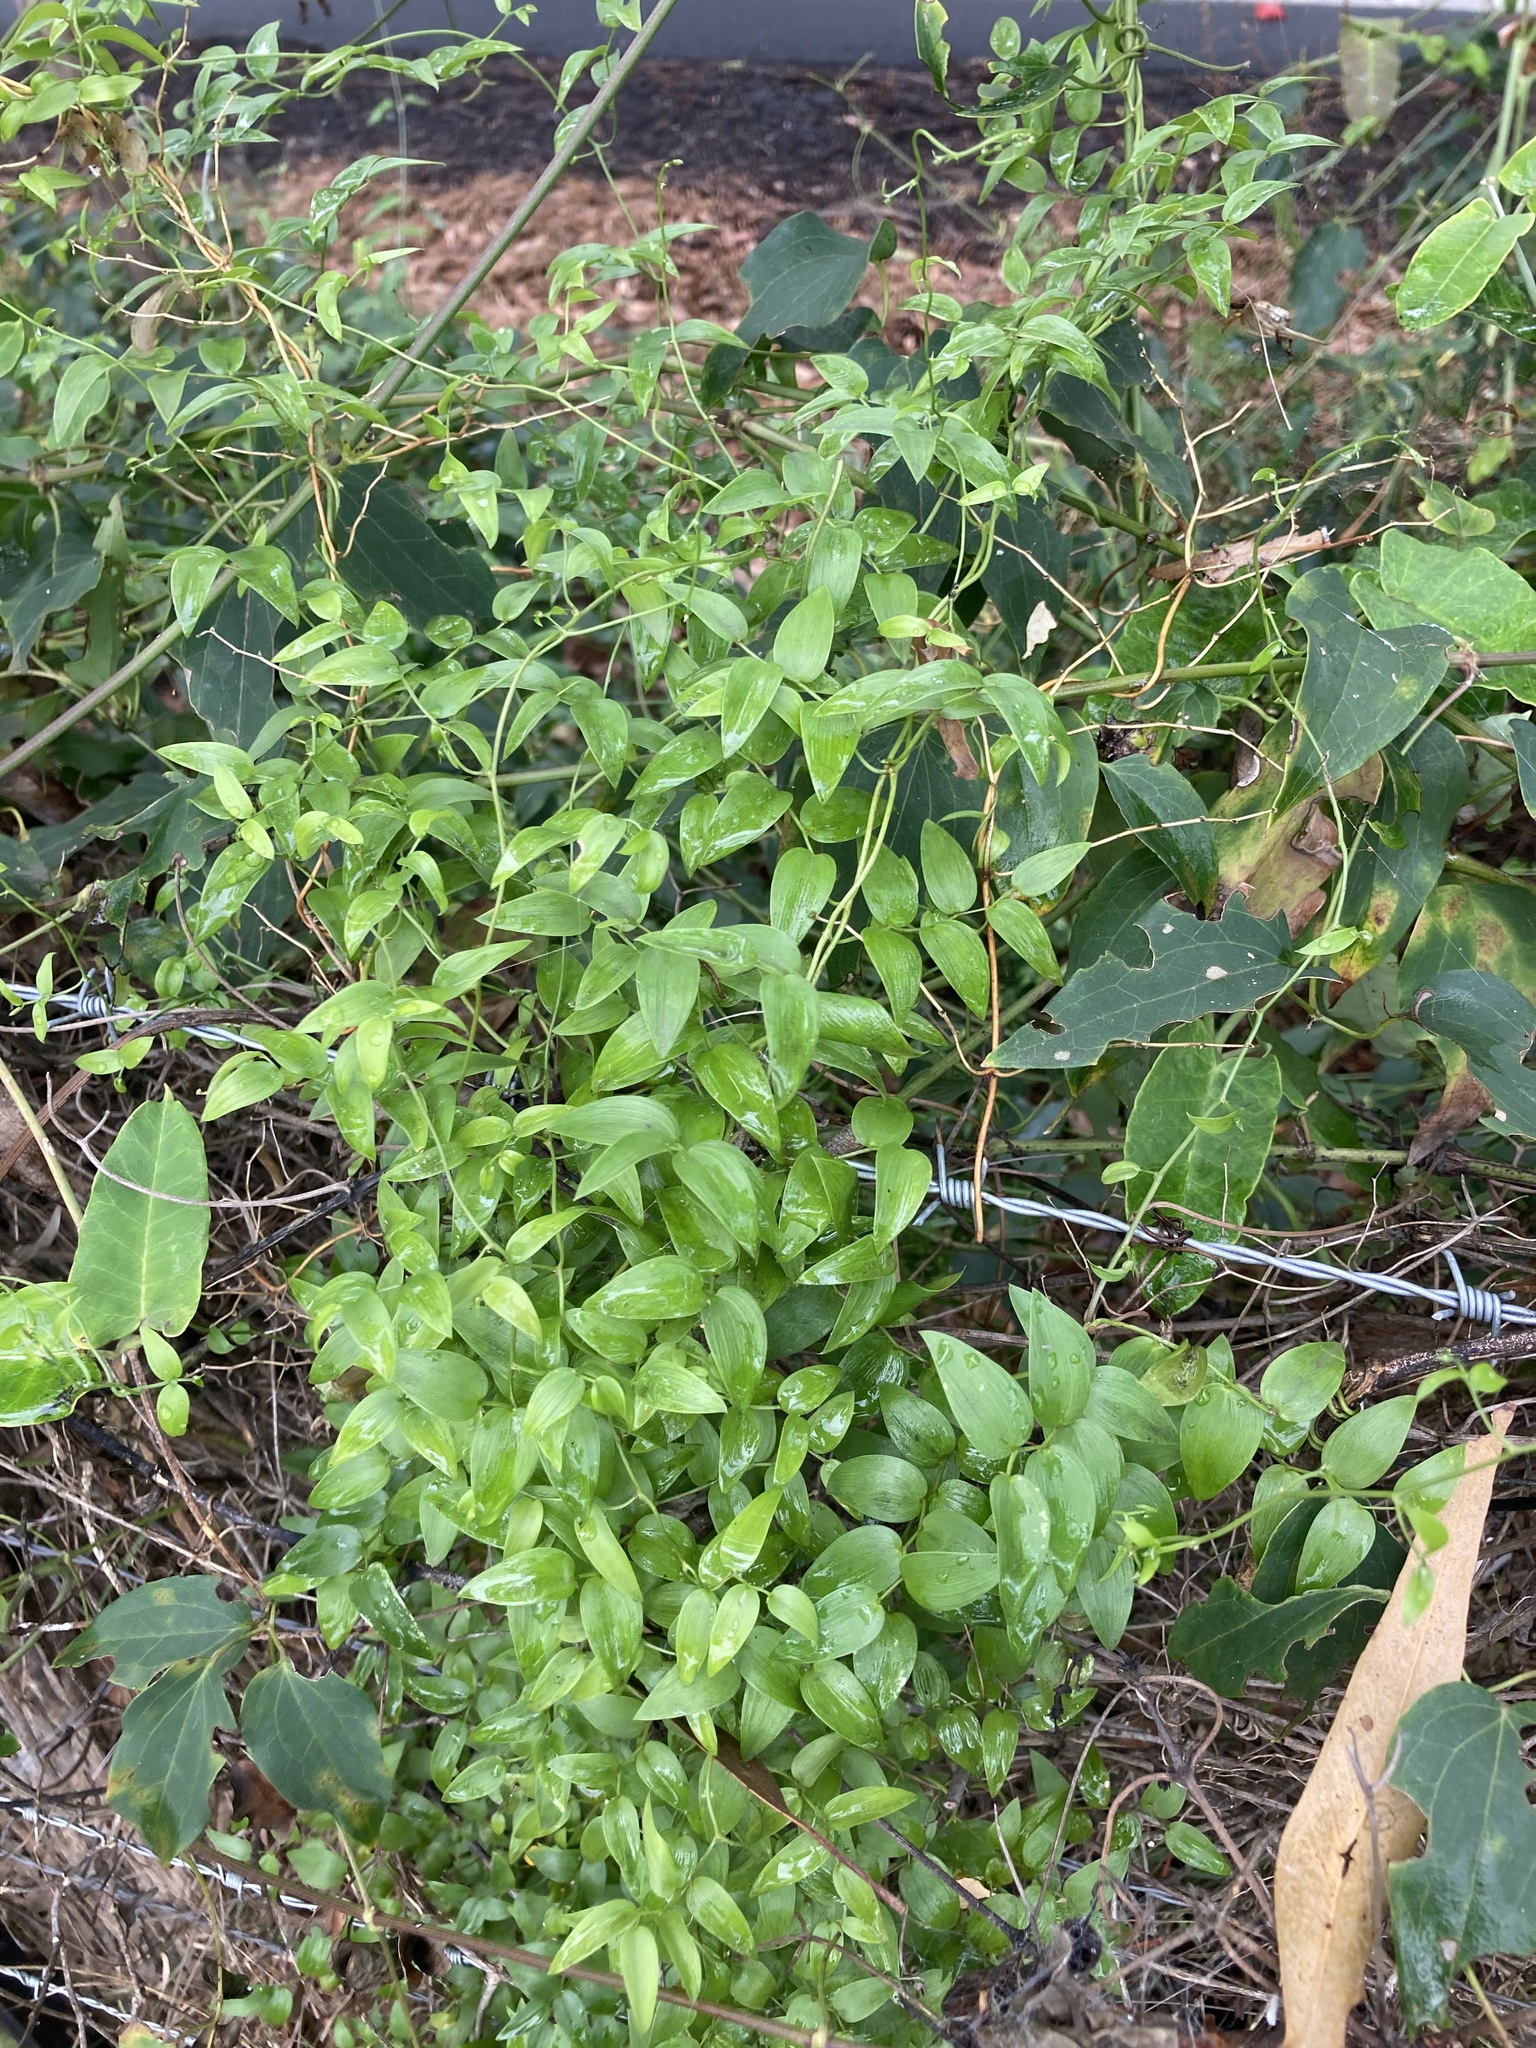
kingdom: Plantae
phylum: Tracheophyta
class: Liliopsida
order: Asparagales
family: Asparagaceae
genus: Asparagus
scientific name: Asparagus asparagoides
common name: African asparagus fern
